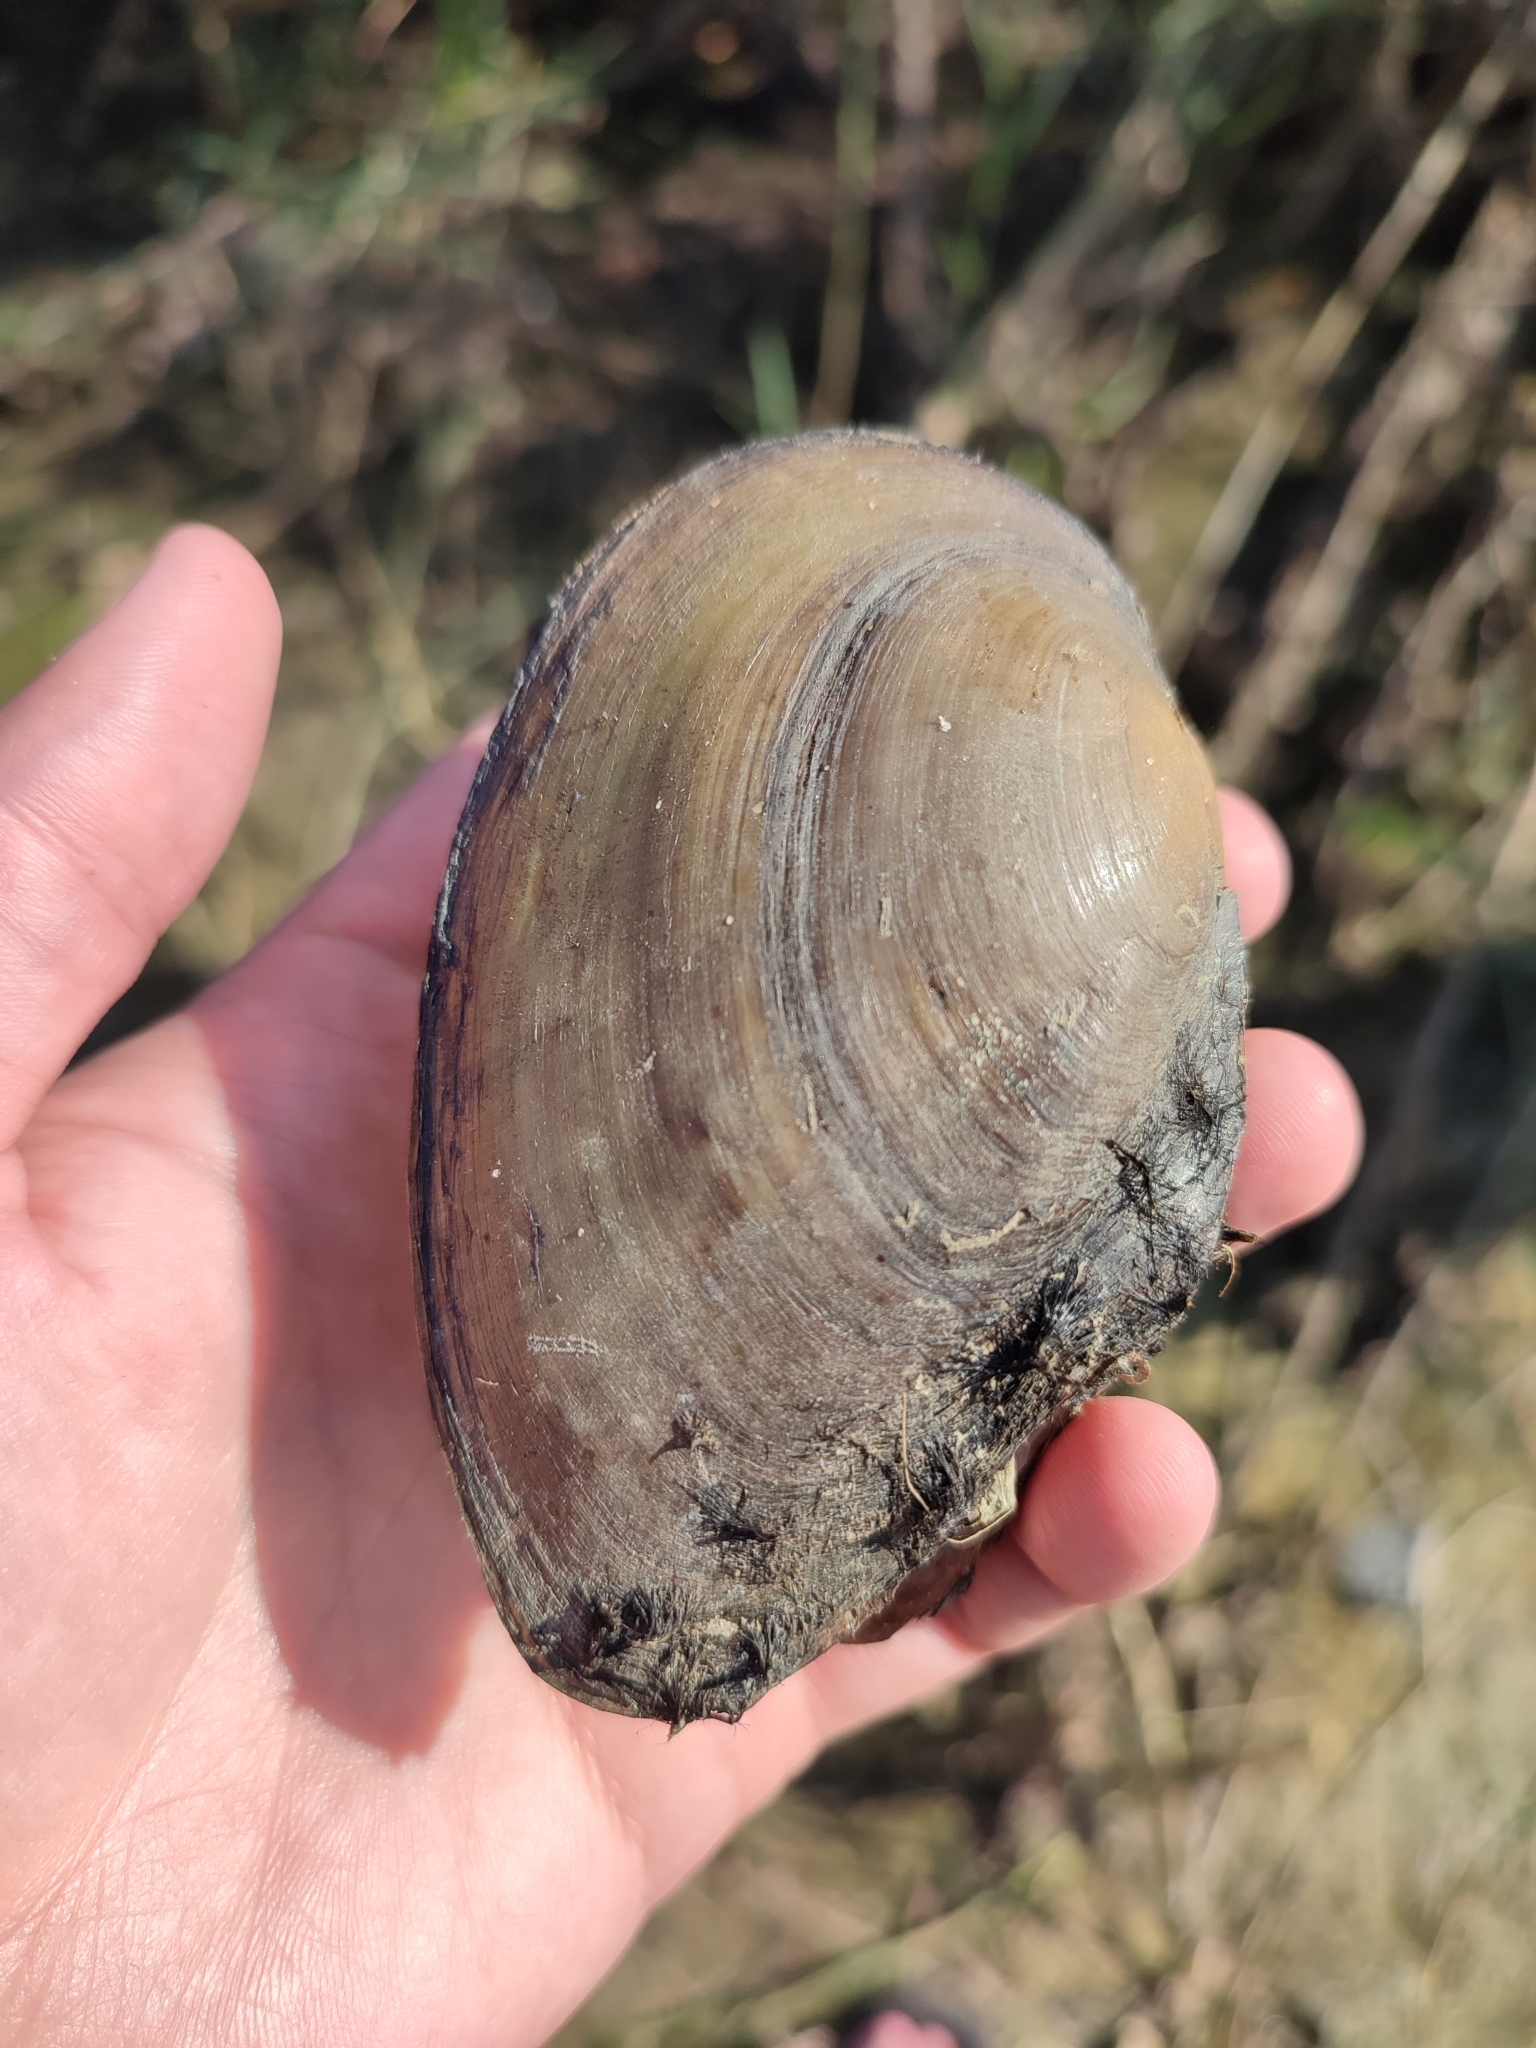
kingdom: Animalia
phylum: Mollusca
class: Bivalvia
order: Unionida
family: Unionidae
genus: Anodonta
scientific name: Anodonta anatina
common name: Duck mussel
